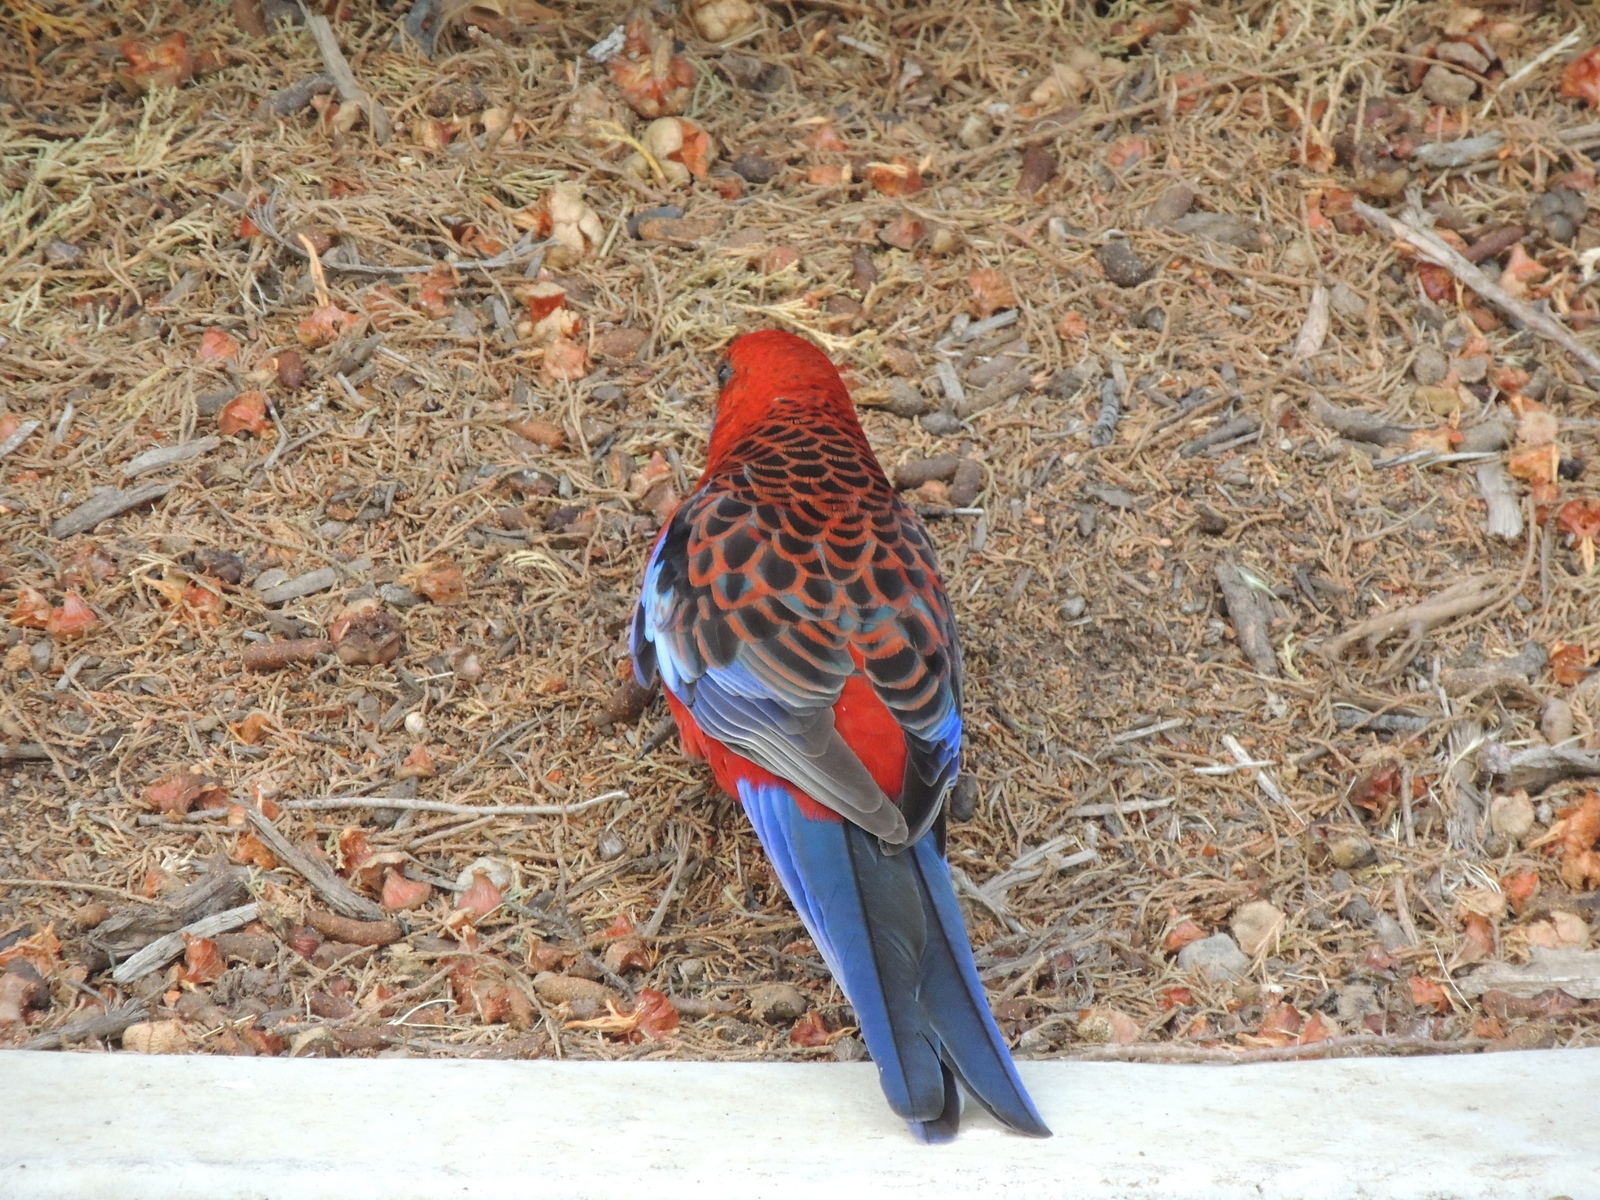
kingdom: Animalia
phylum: Chordata
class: Aves
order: Psittaciformes
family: Psittacidae
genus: Platycercus
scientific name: Platycercus elegans
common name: Crimson rosella
